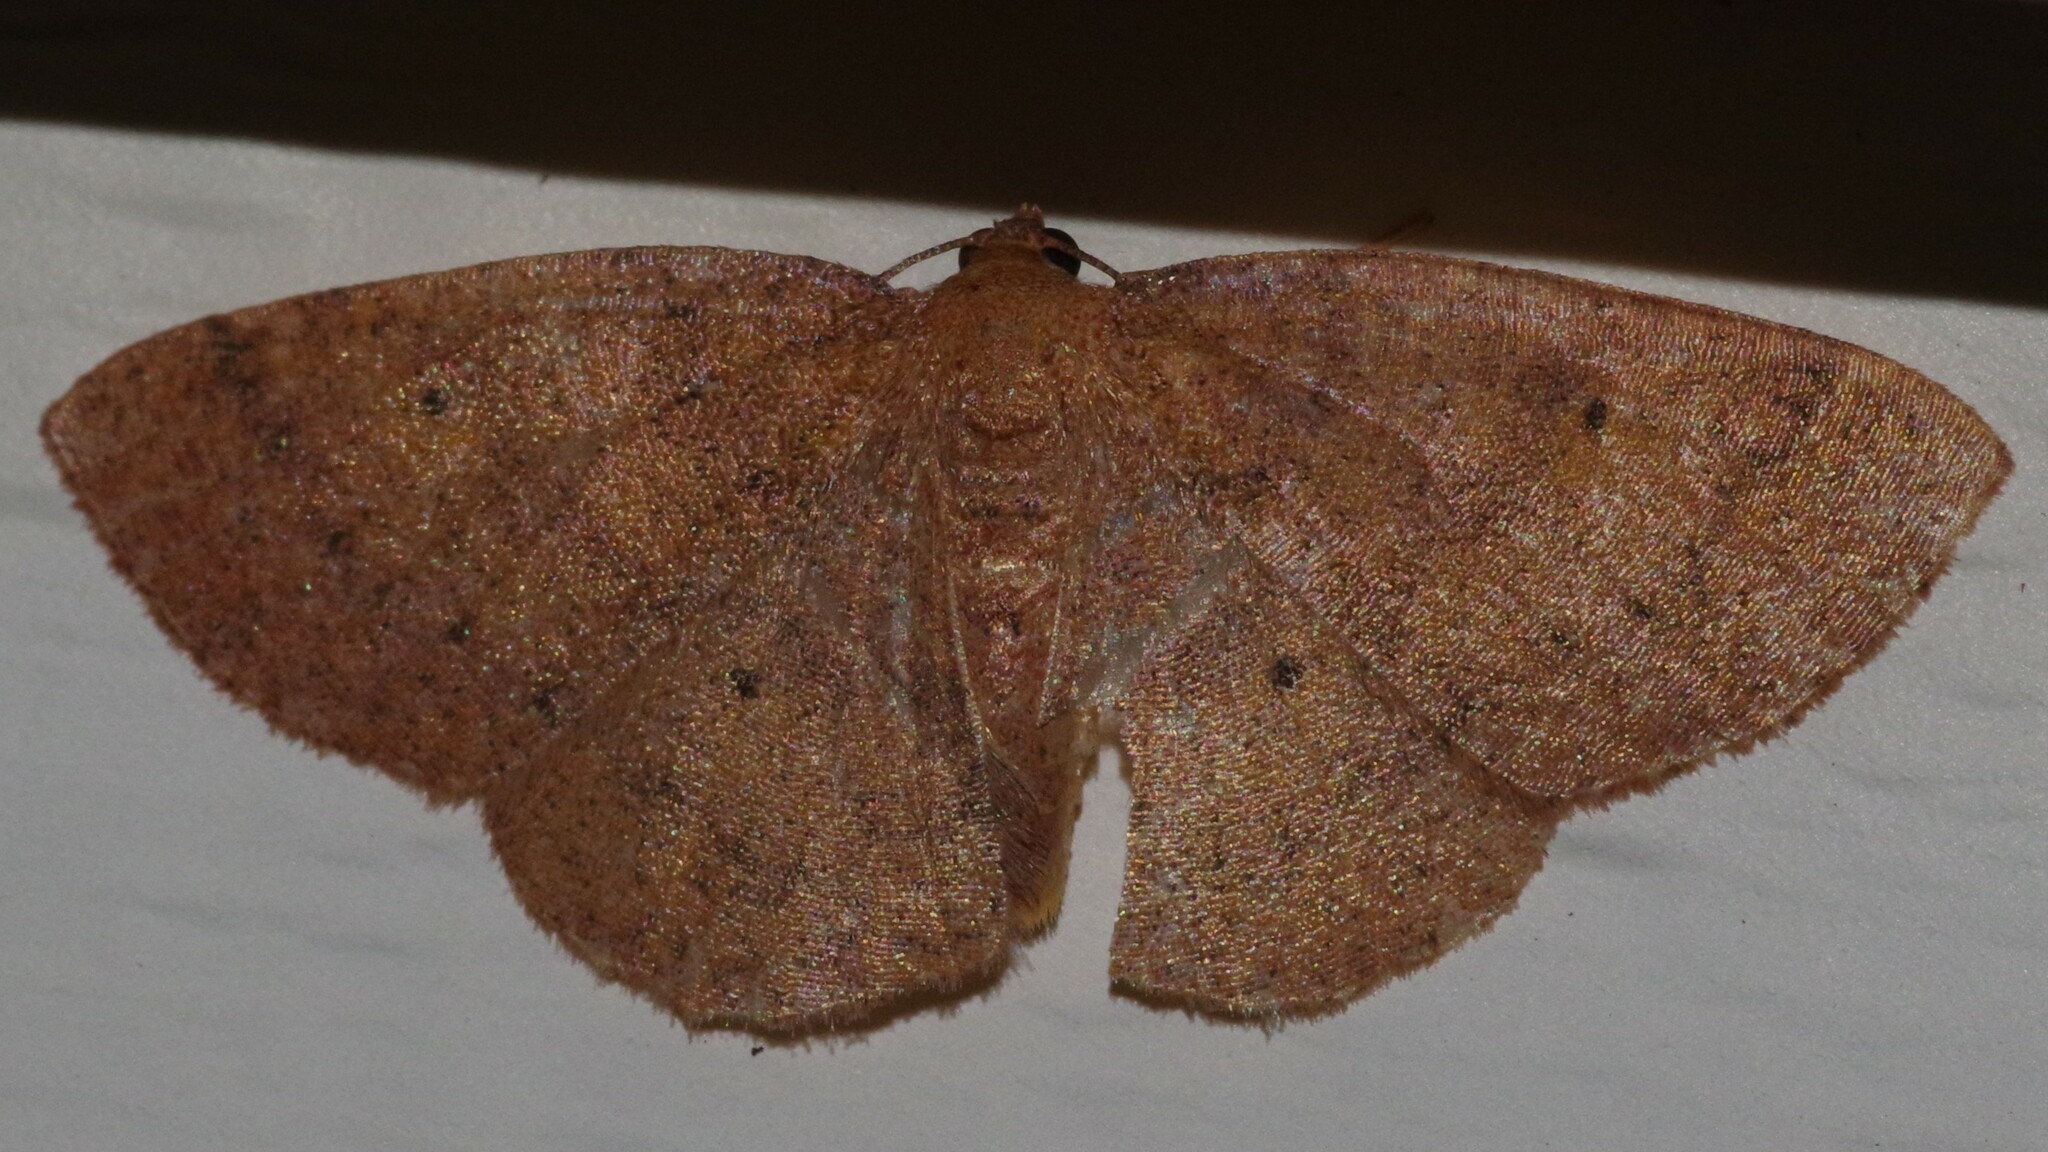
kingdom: Animalia
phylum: Arthropoda
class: Insecta
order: Lepidoptera
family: Geometridae
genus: Ilexia
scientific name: Ilexia intractata
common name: Black-dotted ruddy moth
